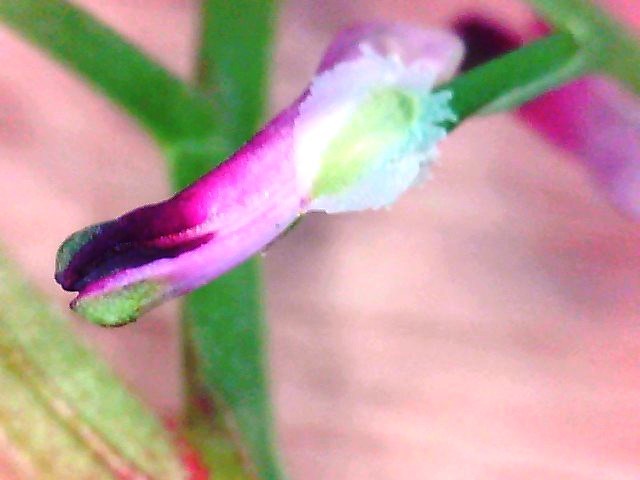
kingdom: Plantae
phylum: Tracheophyta
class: Magnoliopsida
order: Ranunculales
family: Papaveraceae
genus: Fumaria
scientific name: Fumaria muralis
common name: Common ramping-fumitory
